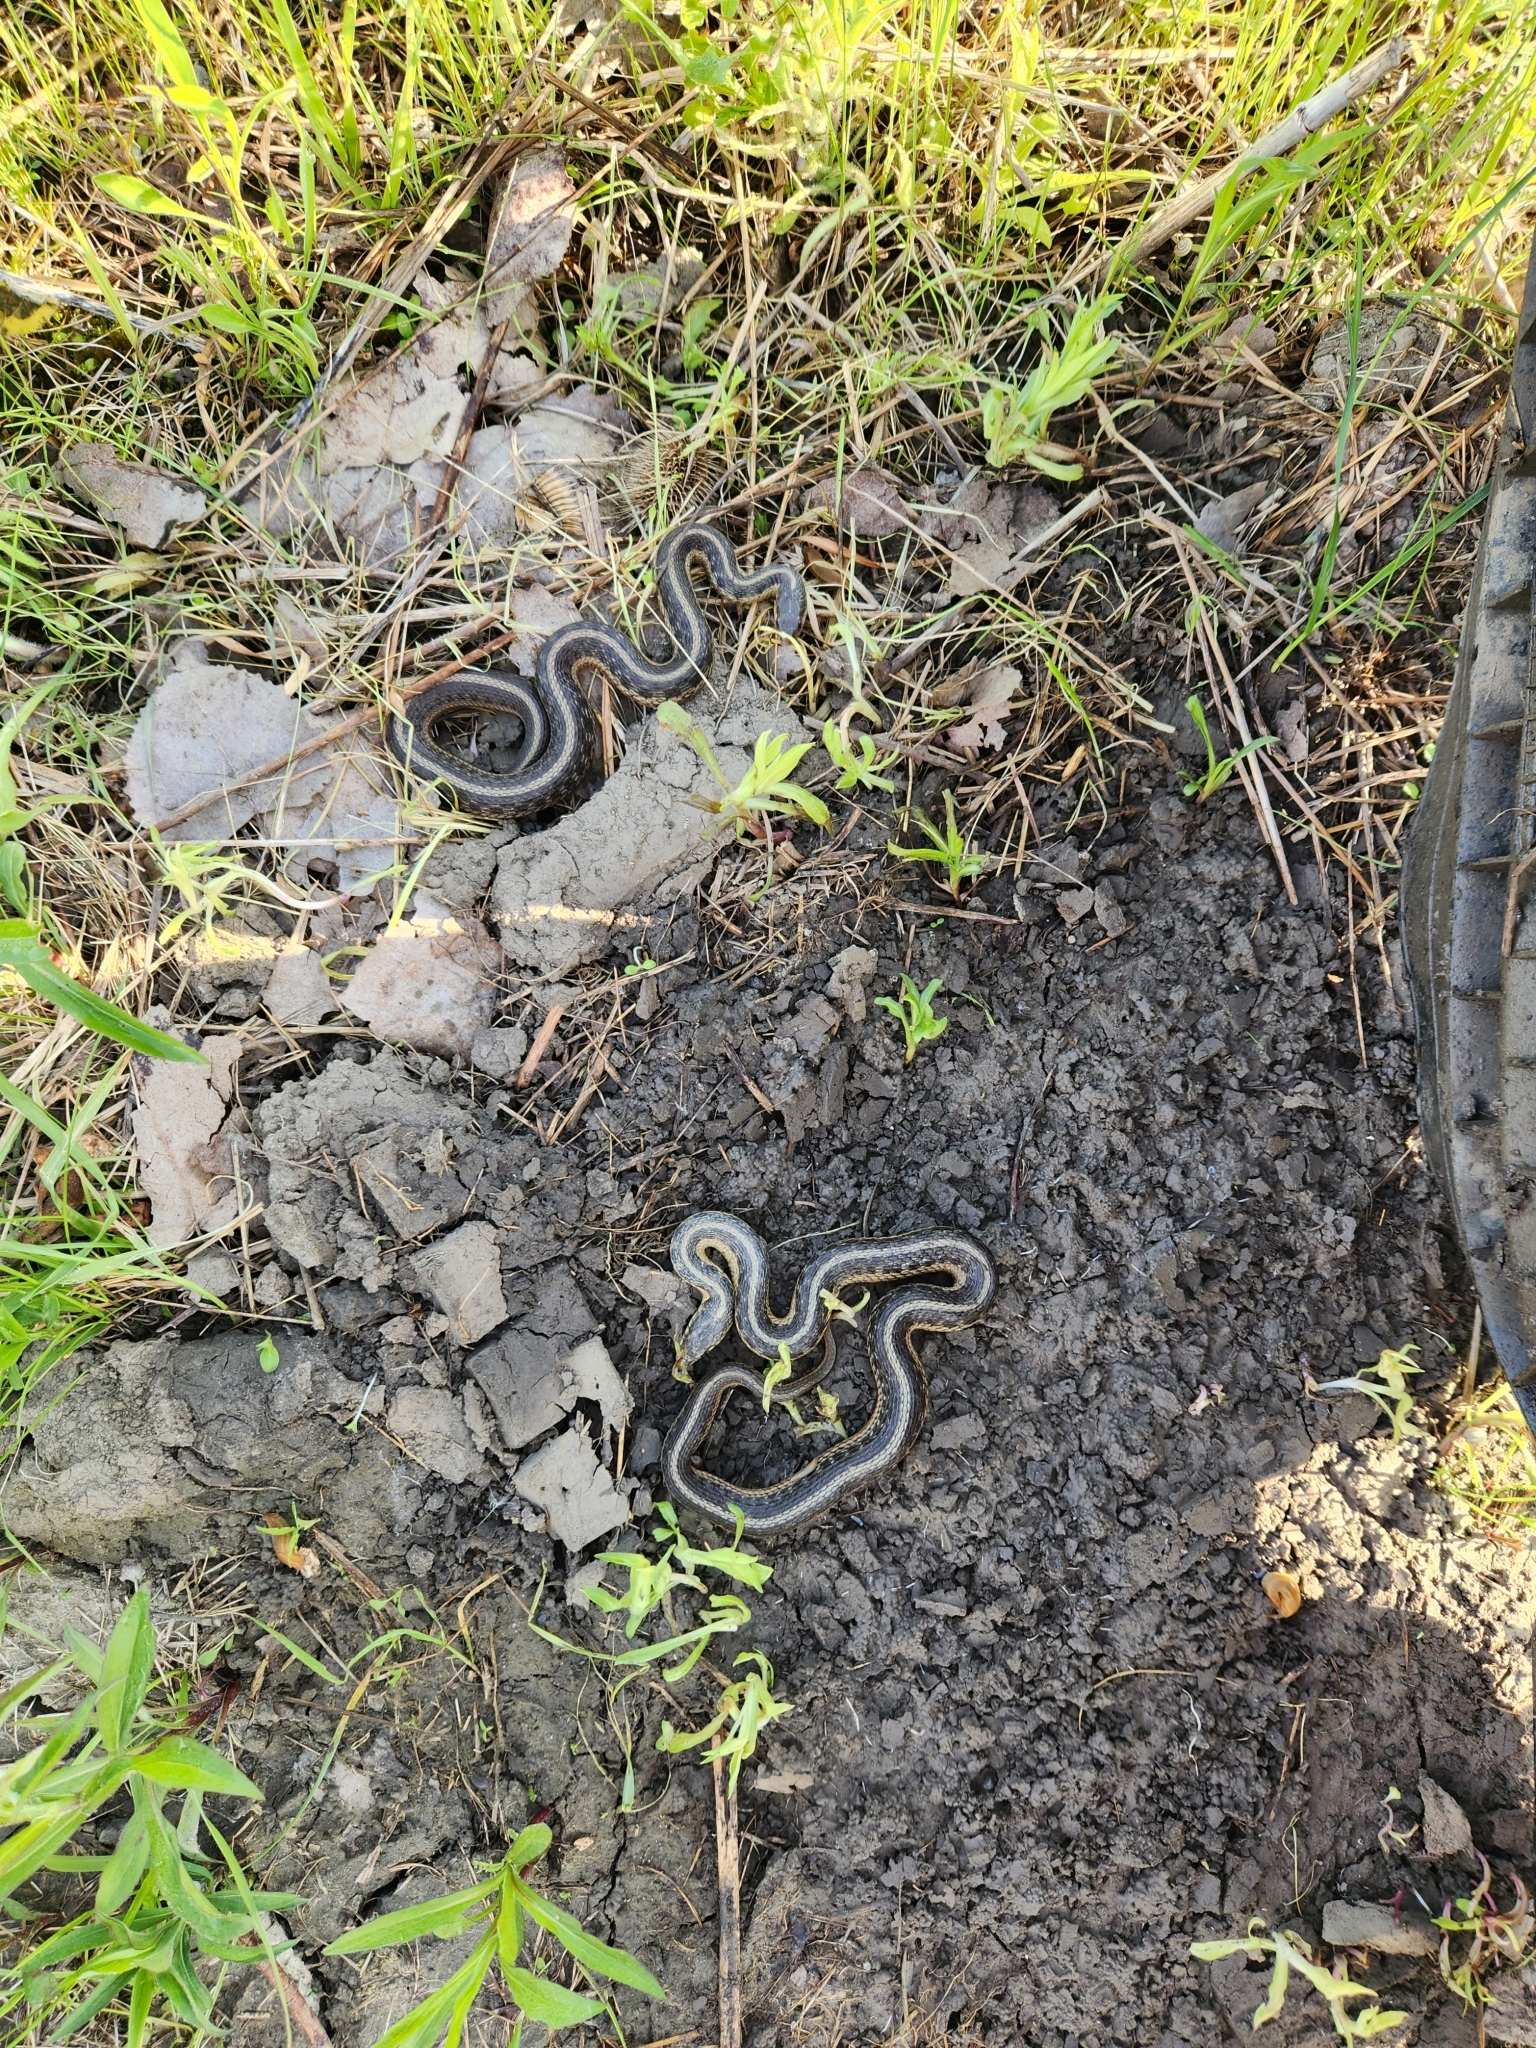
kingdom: Animalia
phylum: Chordata
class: Squamata
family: Colubridae
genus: Thamnophis
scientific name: Thamnophis sirtalis
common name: Common garter snake
